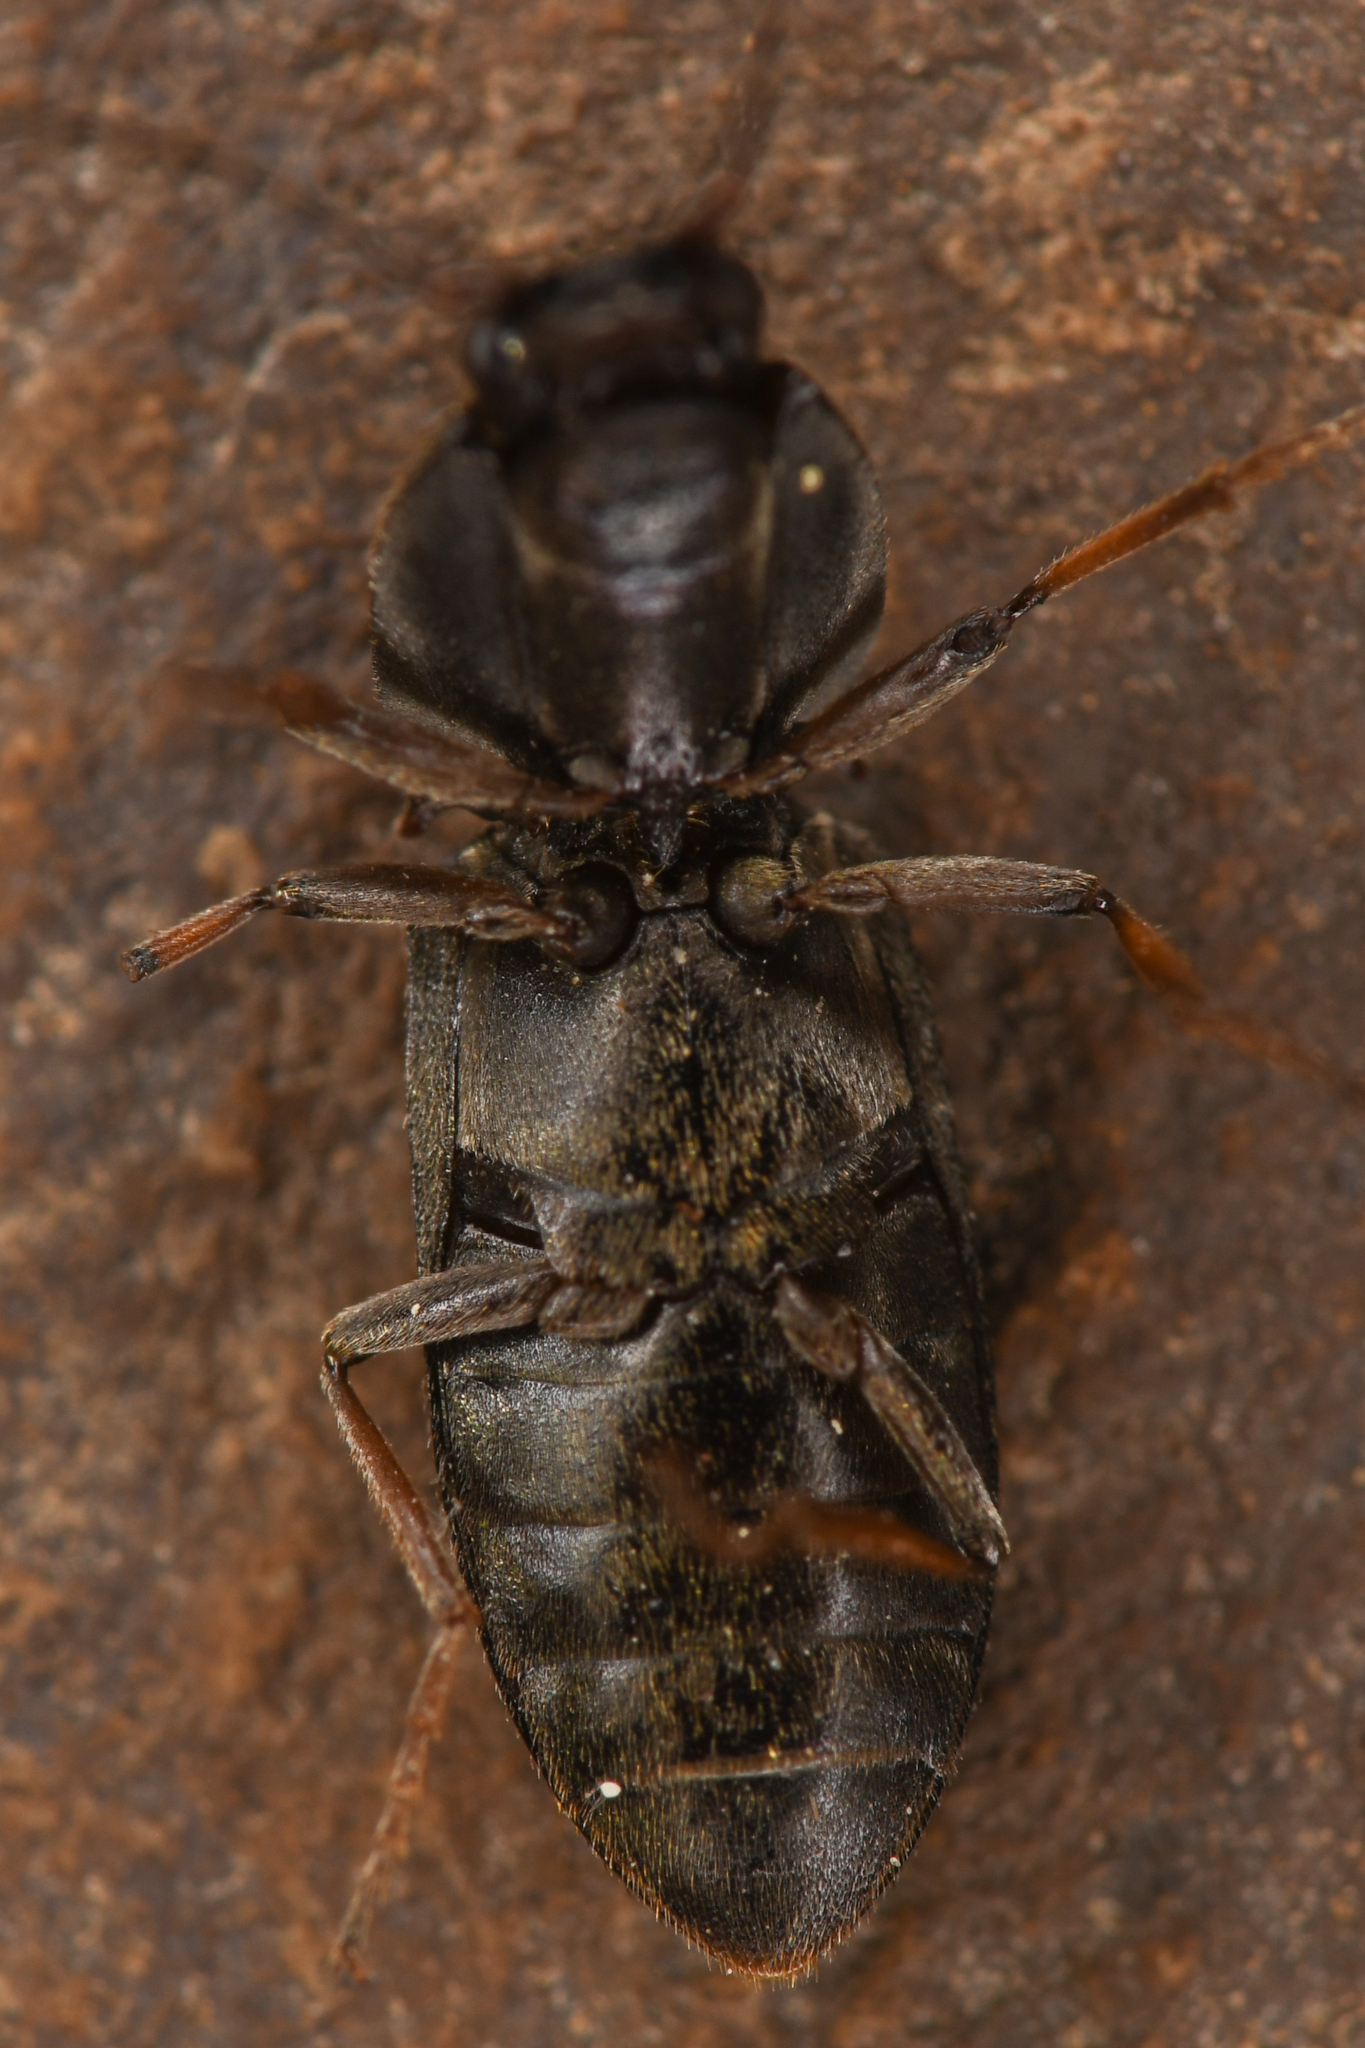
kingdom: Animalia
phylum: Arthropoda
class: Insecta
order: Coleoptera
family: Elateridae
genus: Ligmargus
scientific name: Ligmargus funebris
